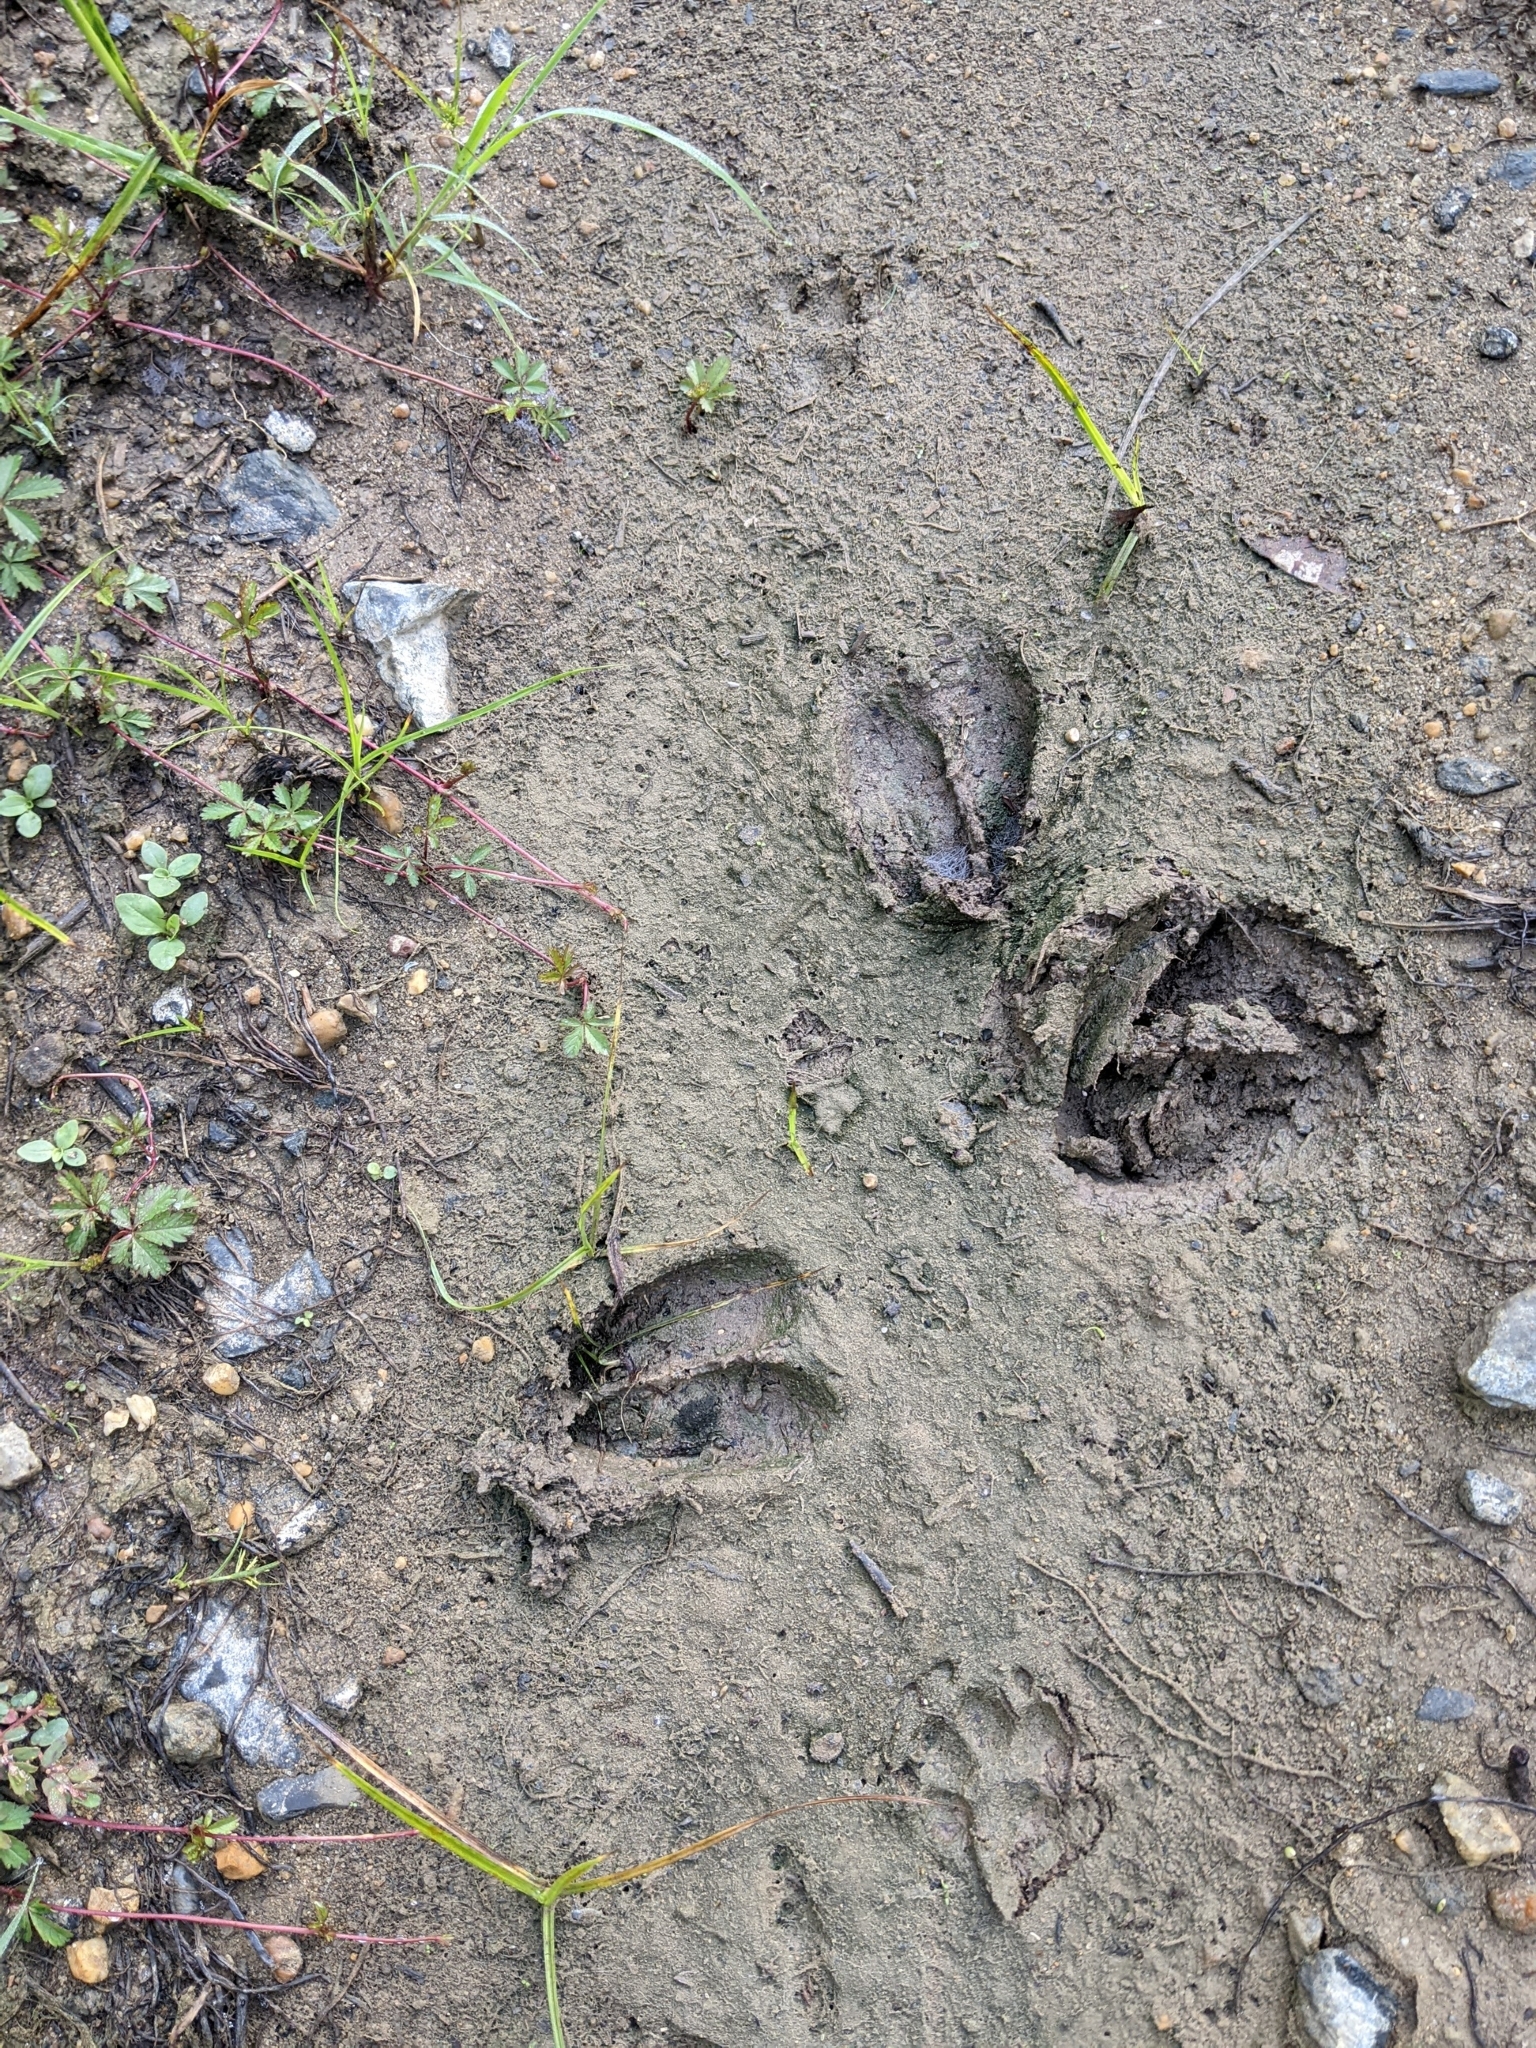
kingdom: Animalia
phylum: Chordata
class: Mammalia
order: Artiodactyla
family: Cervidae
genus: Odocoileus
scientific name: Odocoileus virginianus
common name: White-tailed deer
